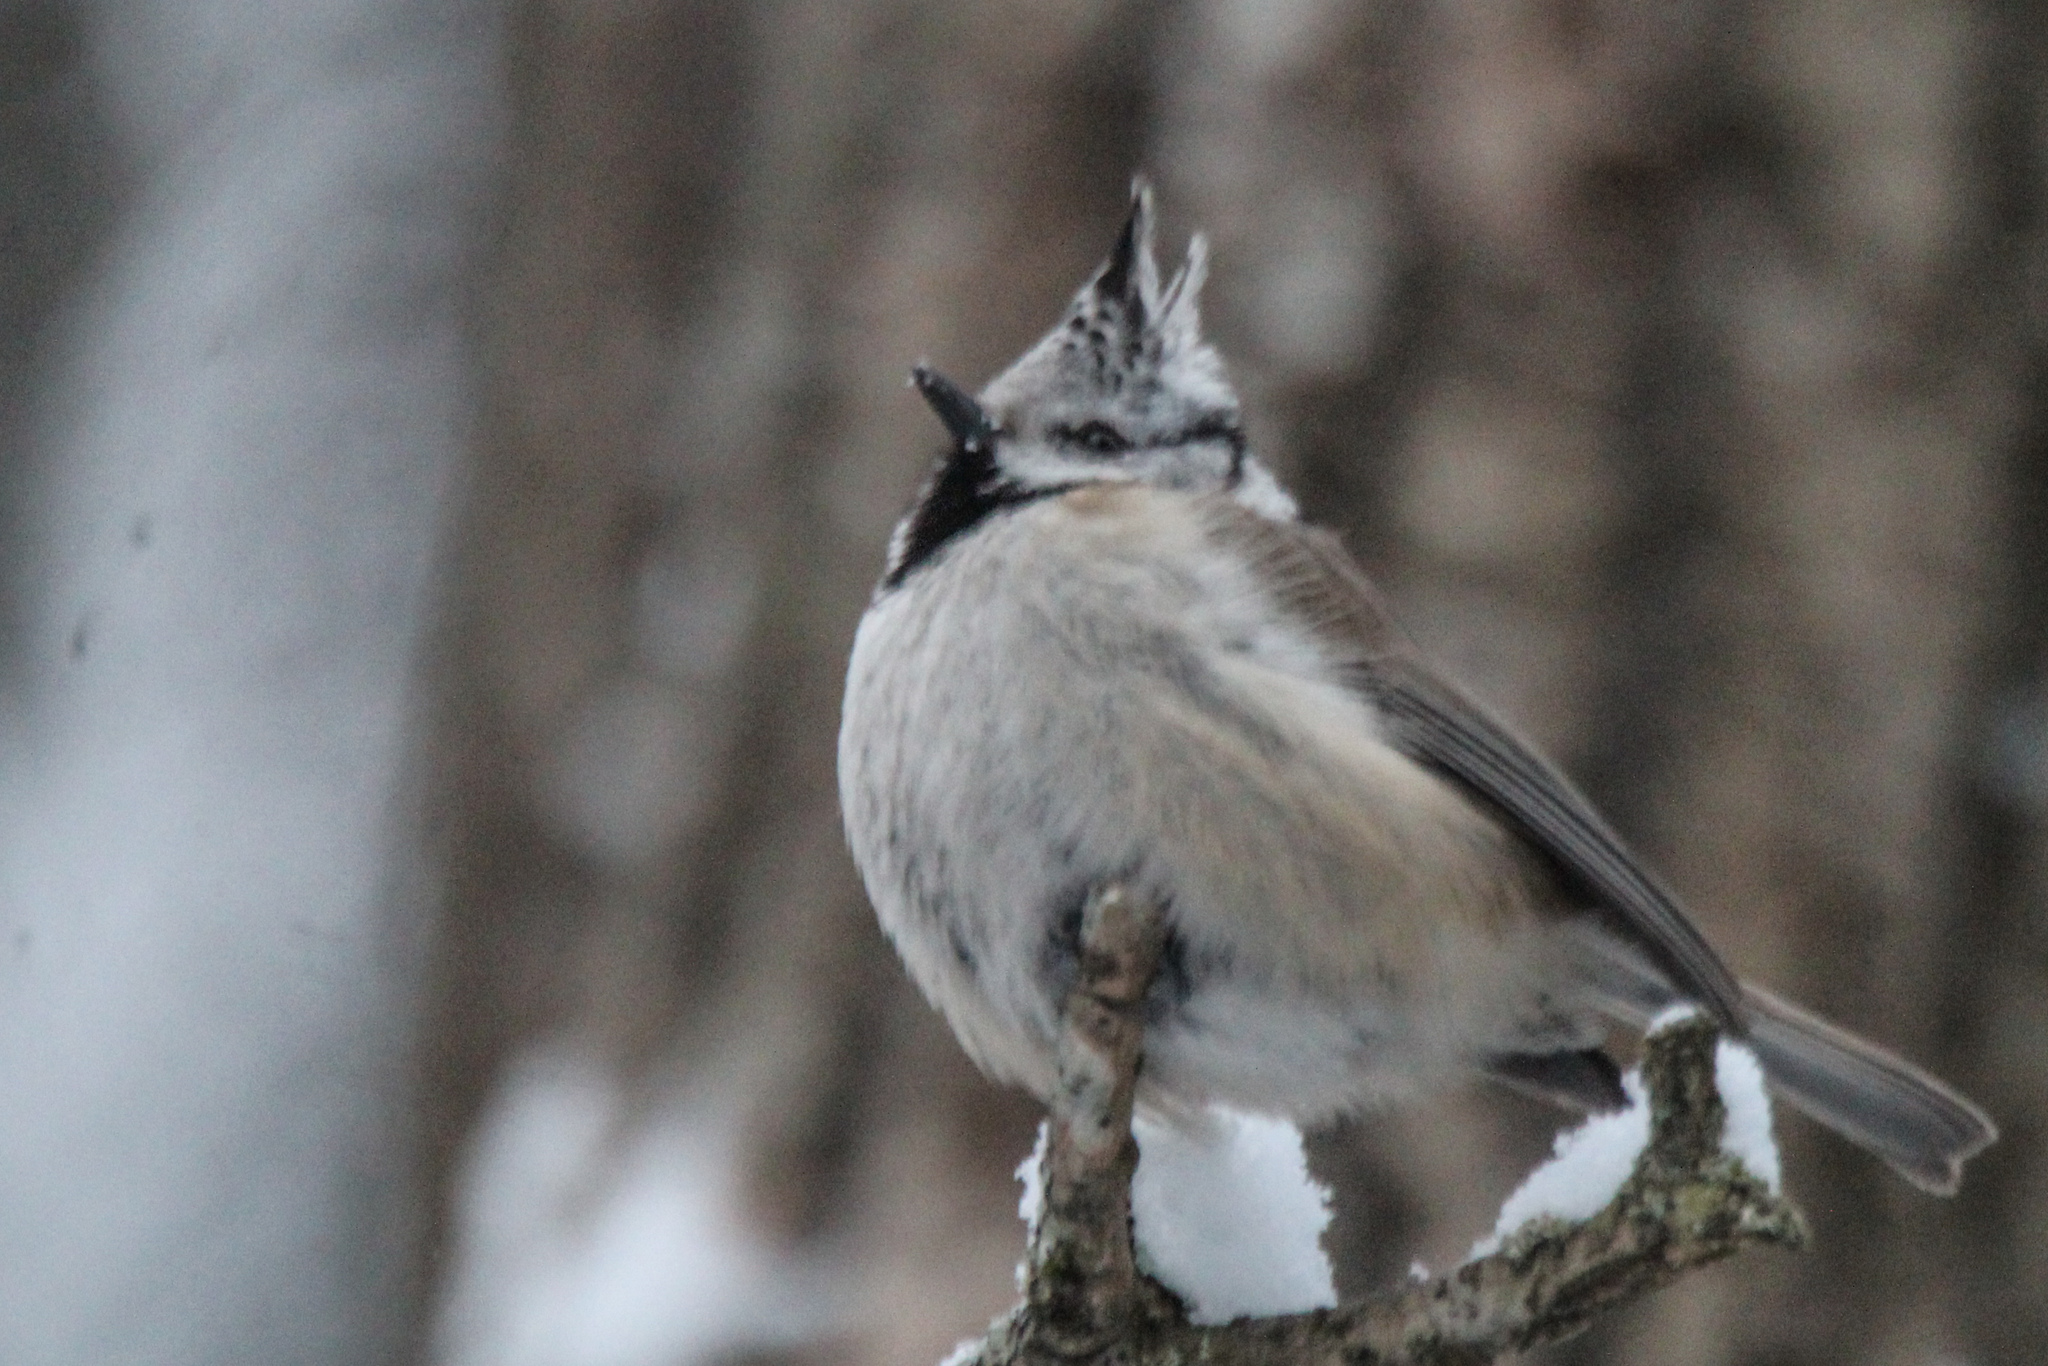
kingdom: Animalia
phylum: Chordata
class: Aves
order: Passeriformes
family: Paridae
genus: Lophophanes
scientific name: Lophophanes cristatus
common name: European crested tit
